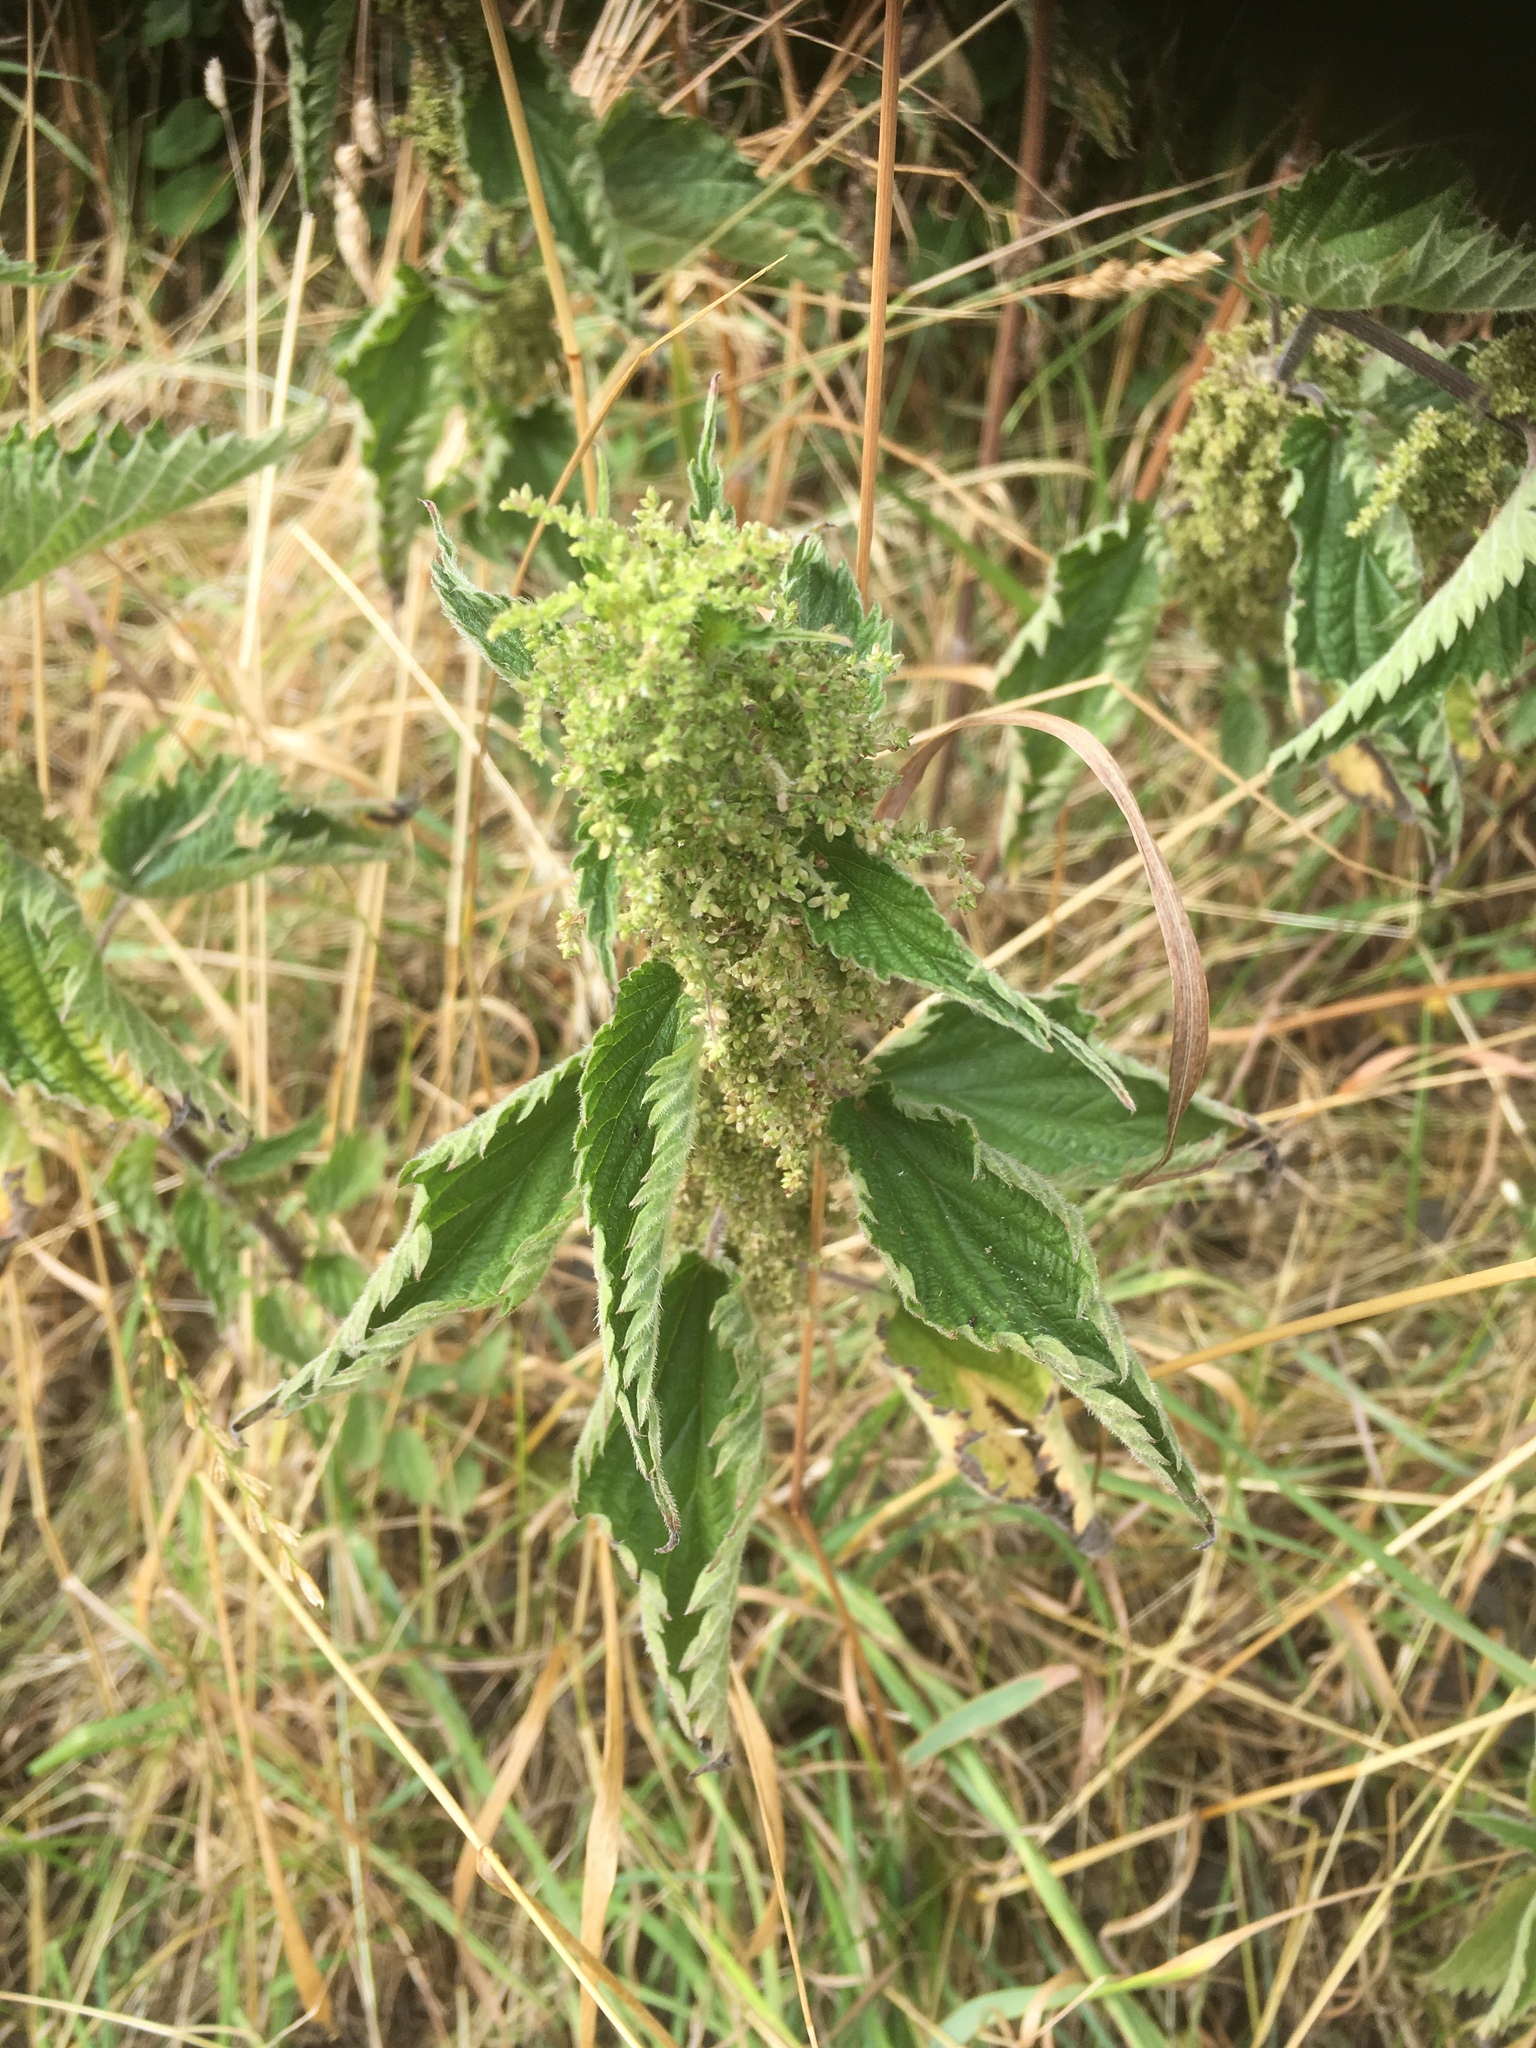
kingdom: Plantae
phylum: Tracheophyta
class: Magnoliopsida
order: Rosales
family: Urticaceae
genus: Urtica
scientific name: Urtica dioica
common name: Common nettle
